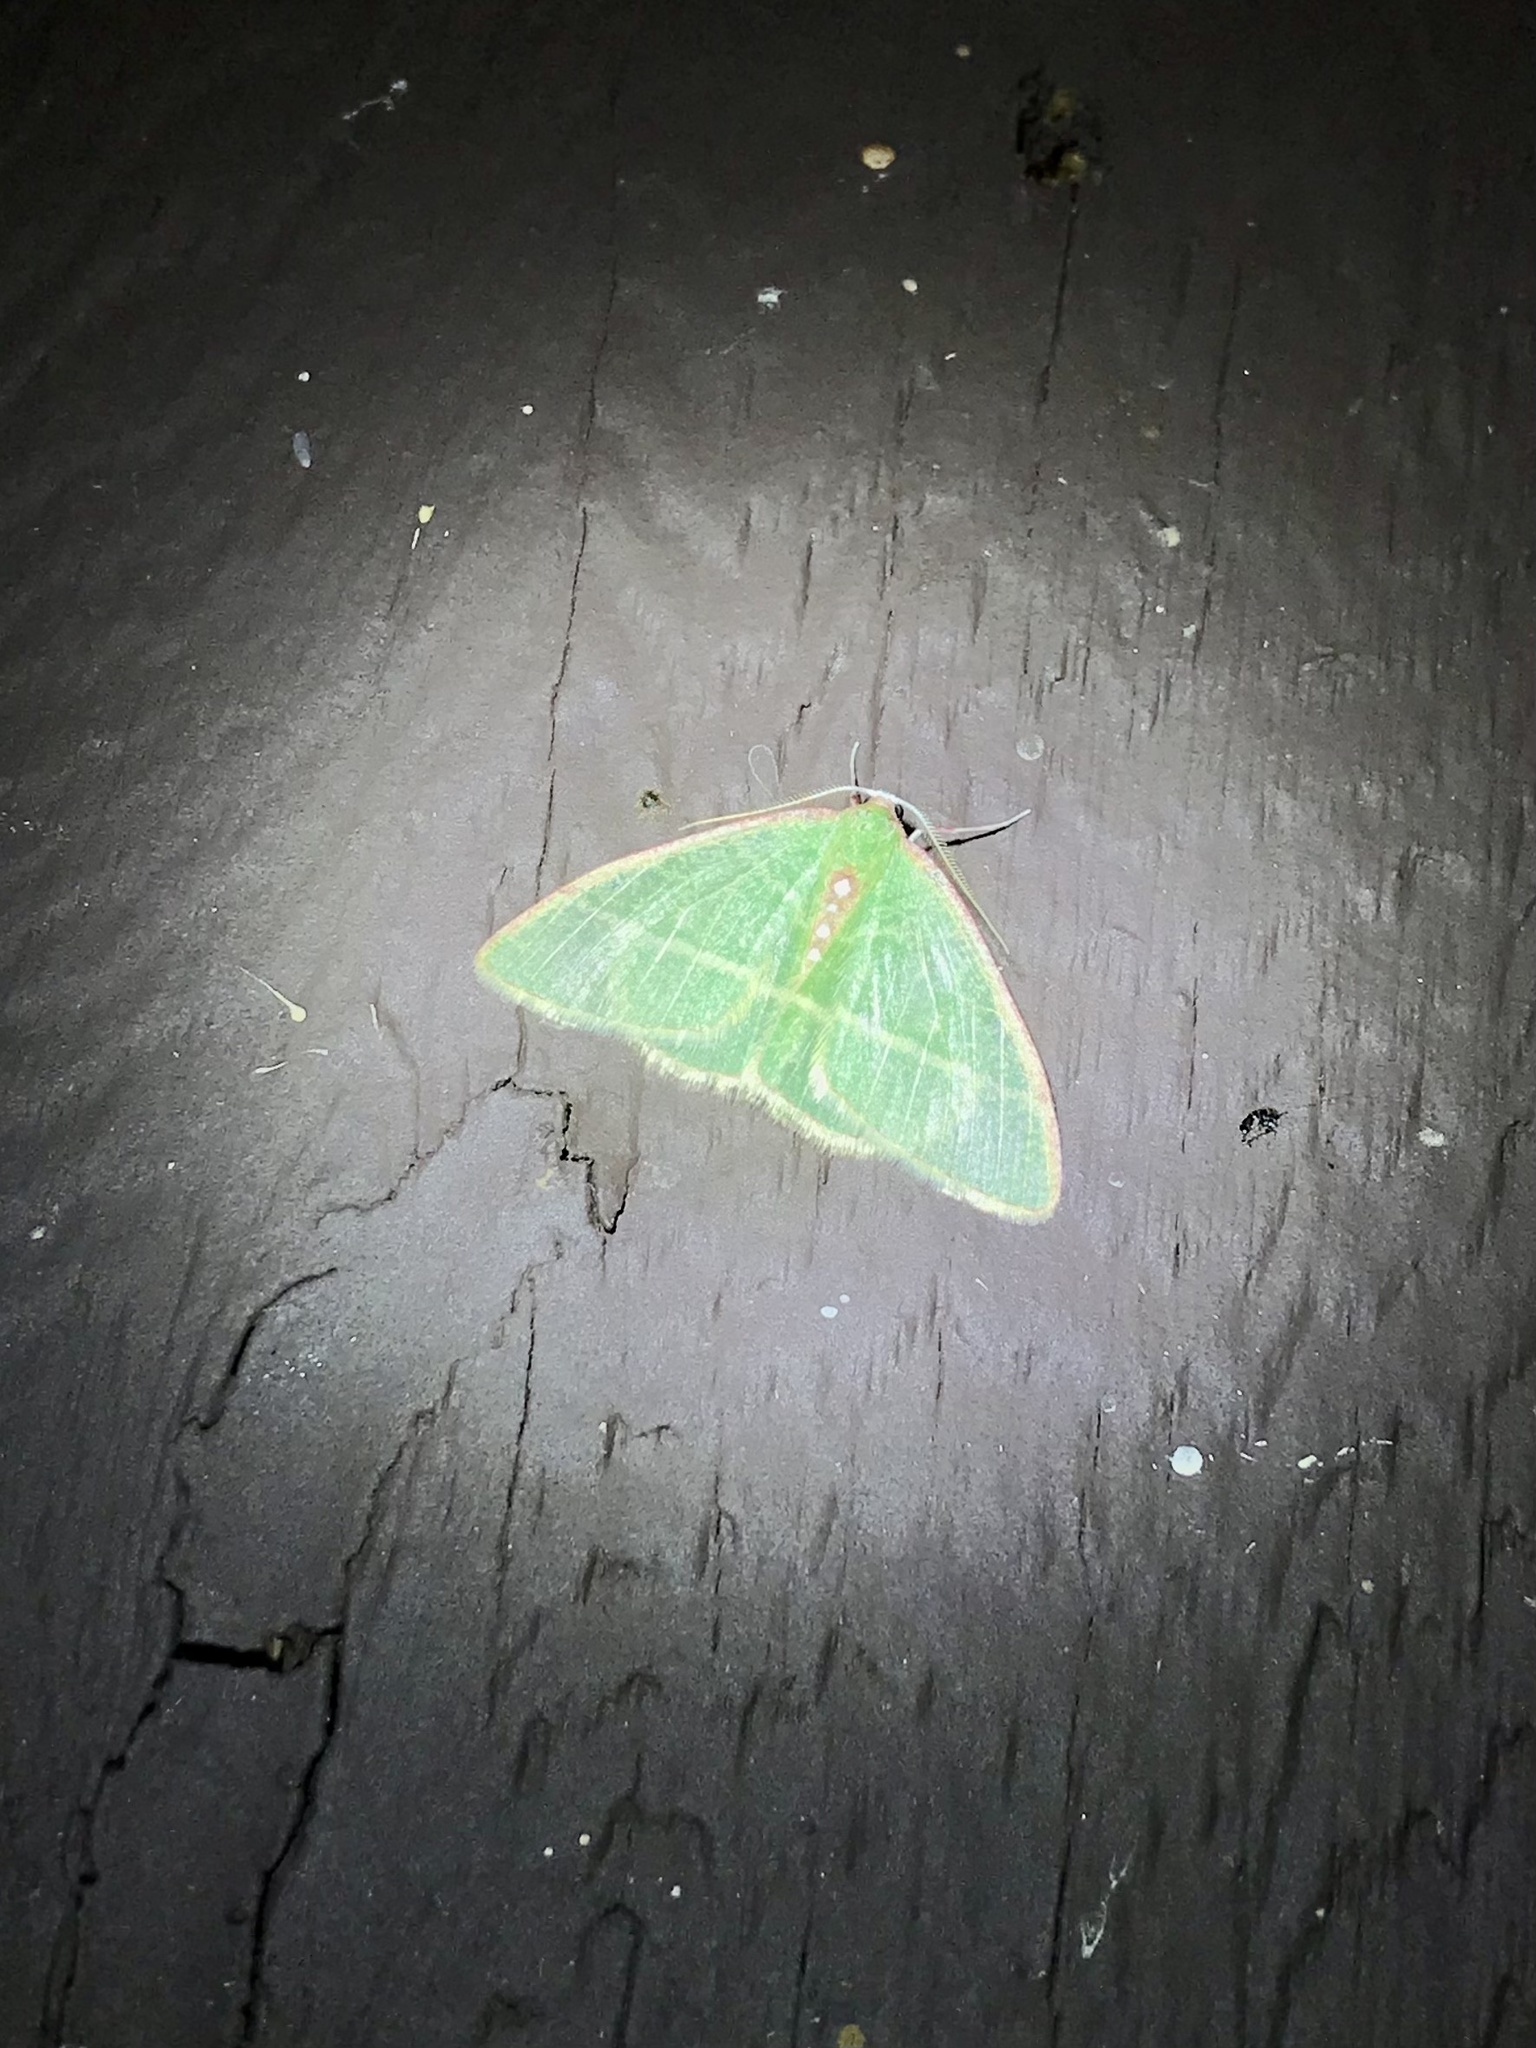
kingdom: Animalia
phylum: Arthropoda
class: Insecta
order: Lepidoptera
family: Geometridae
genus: Nemoria
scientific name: Nemoria arizonaria
